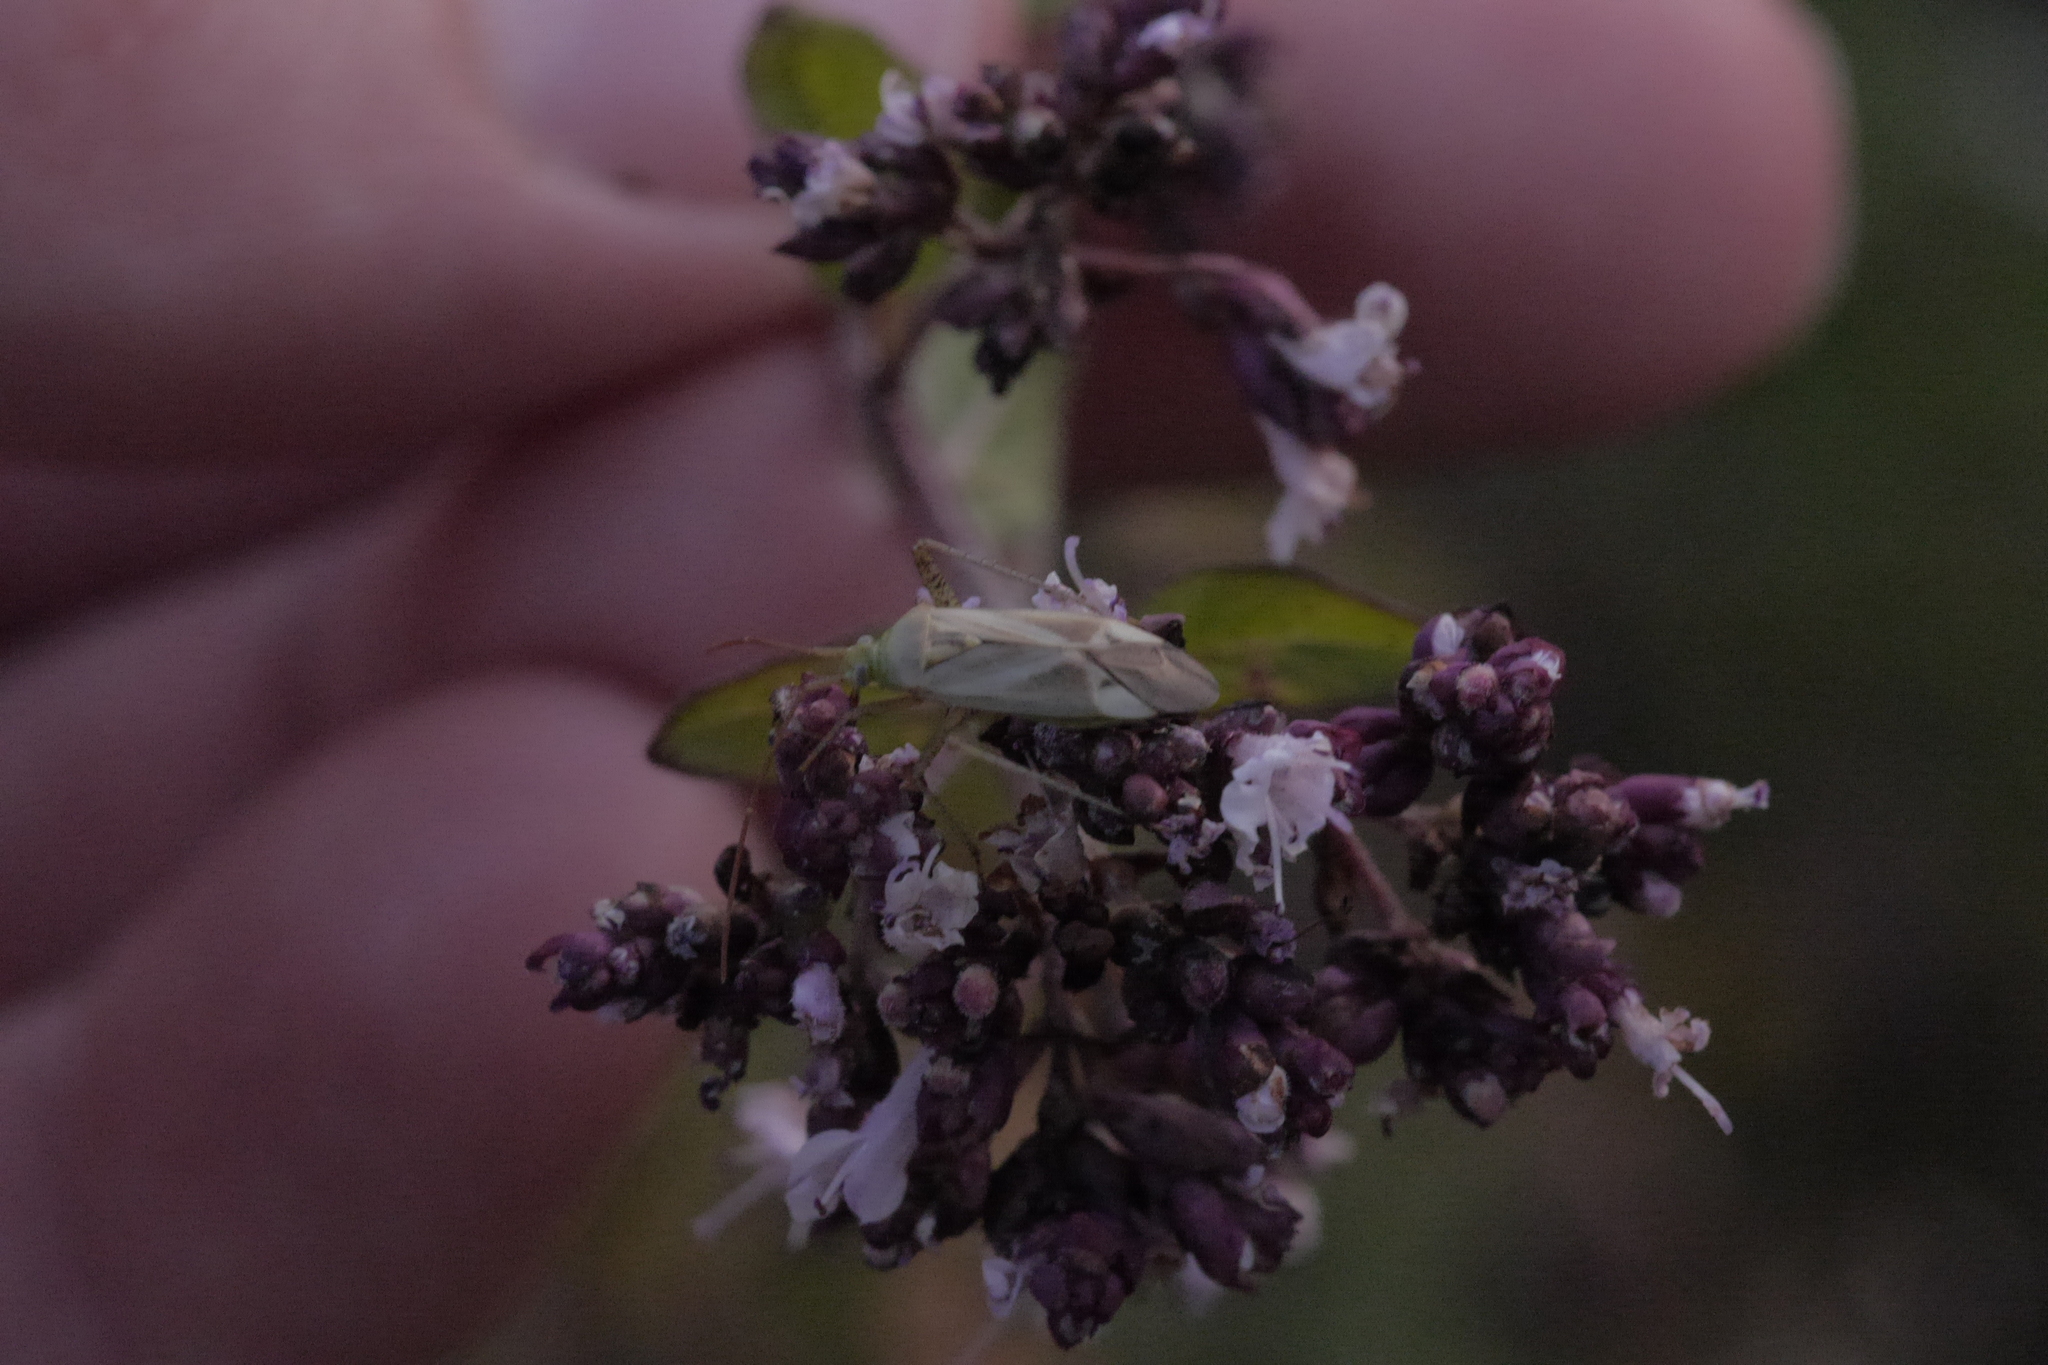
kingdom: Animalia
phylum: Arthropoda
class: Insecta
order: Hemiptera
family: Miridae
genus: Adelphocoris
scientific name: Adelphocoris lineolatus
